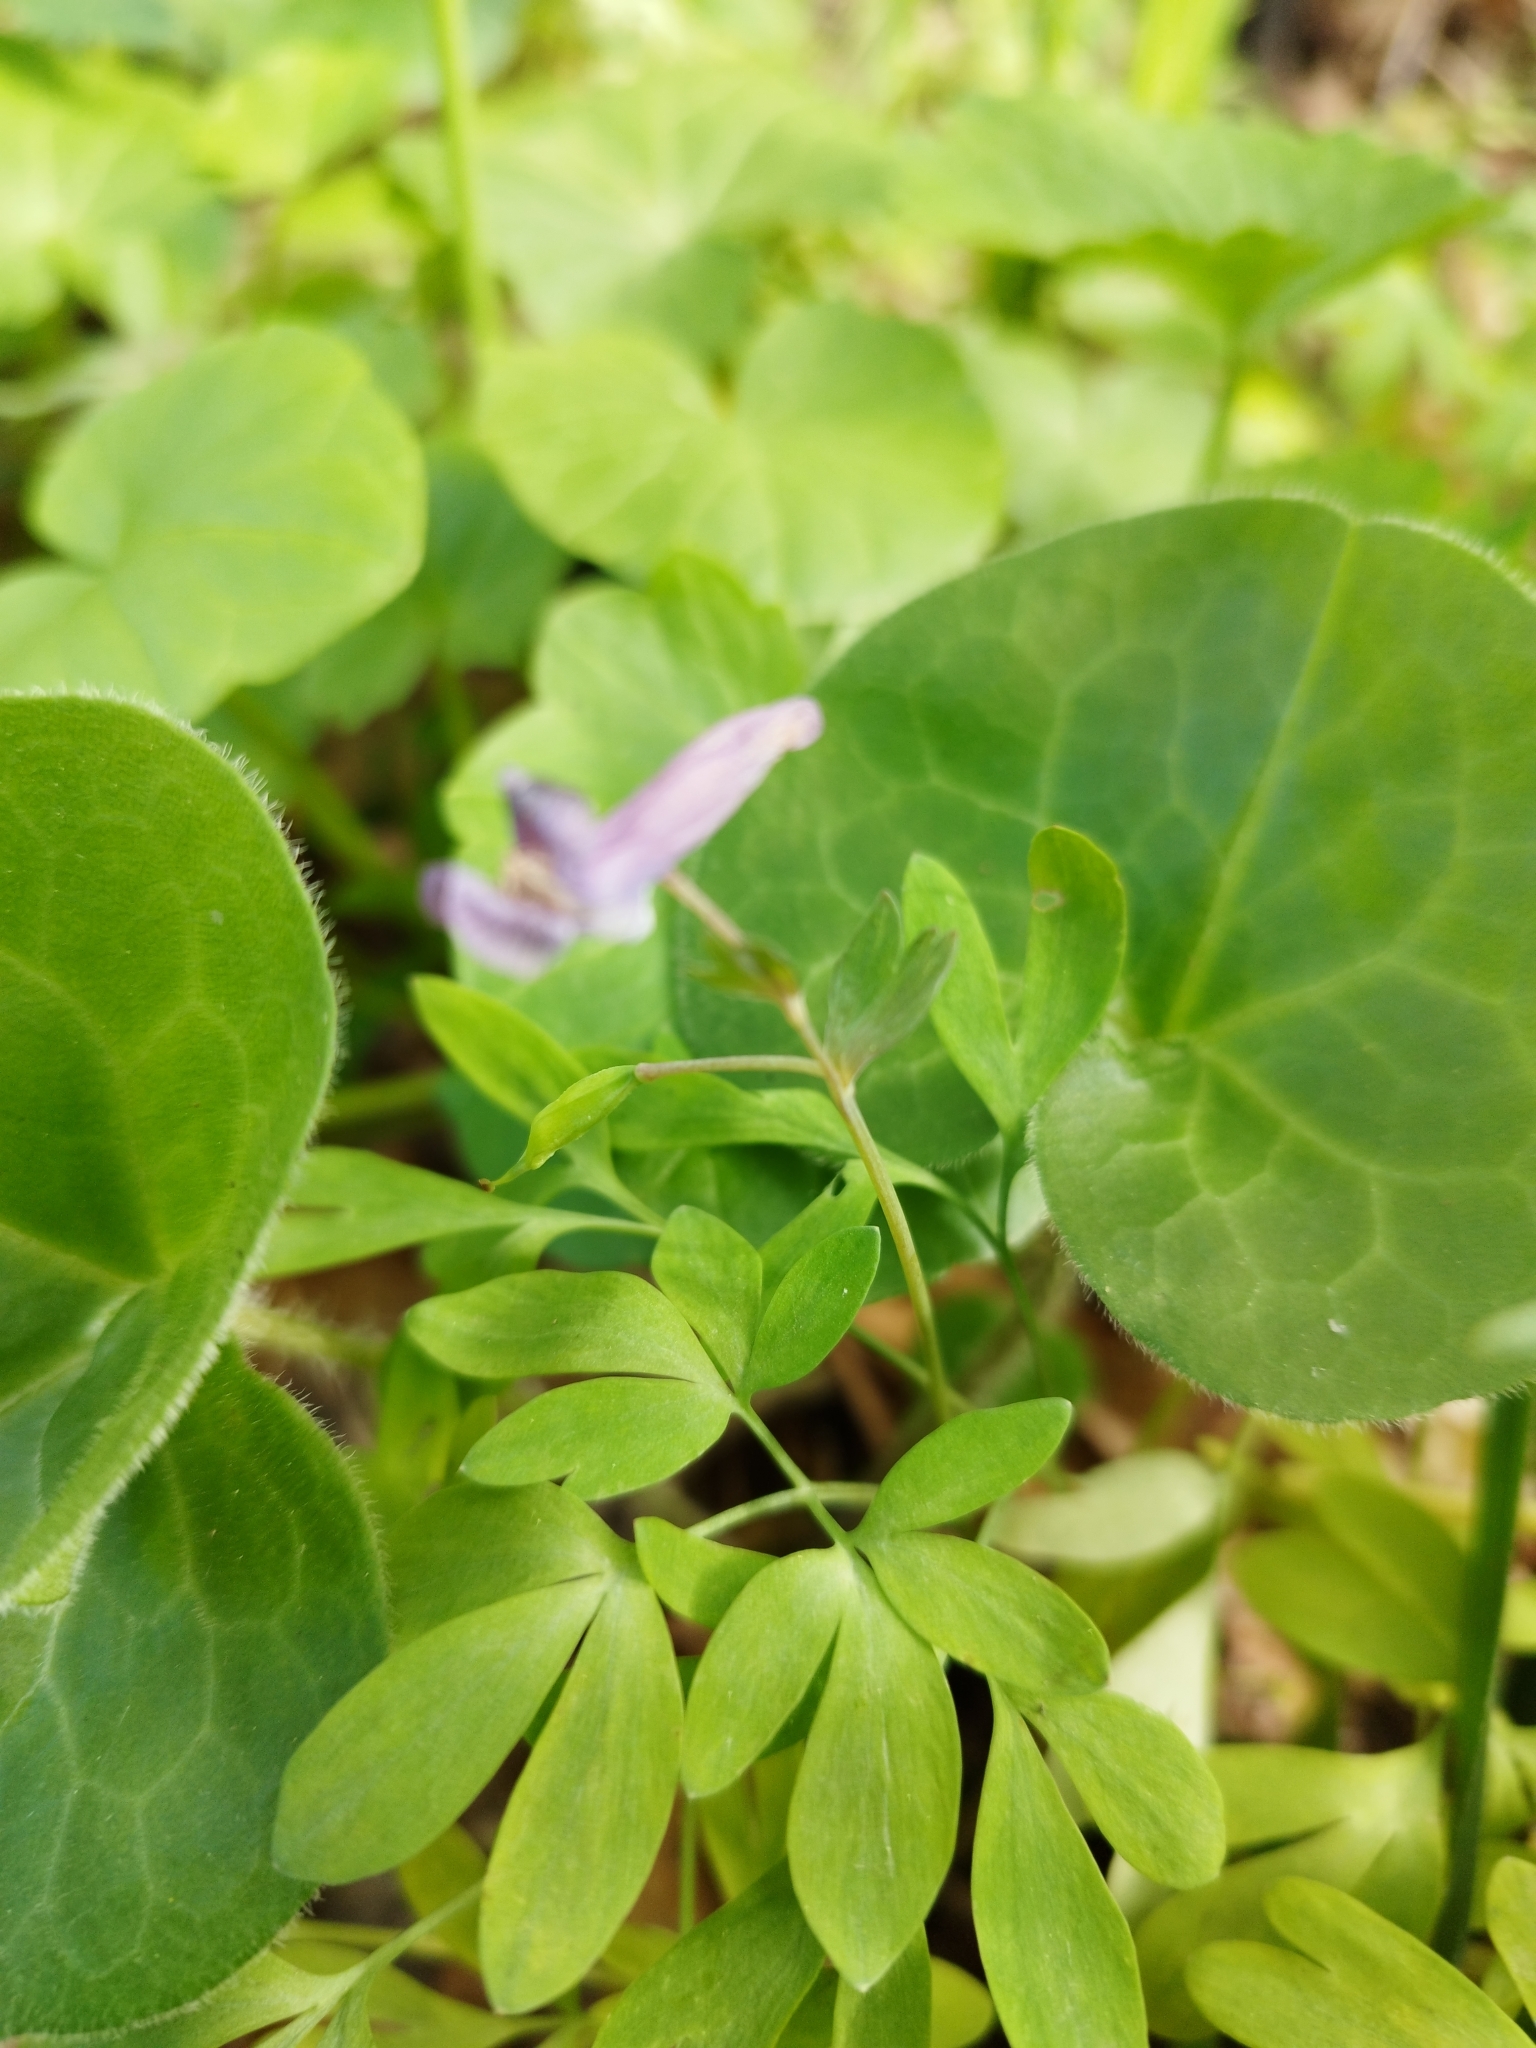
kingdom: Plantae
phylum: Tracheophyta
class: Magnoliopsida
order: Ranunculales
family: Papaveraceae
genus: Corydalis
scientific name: Corydalis solida
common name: Bird-in-a-bush
